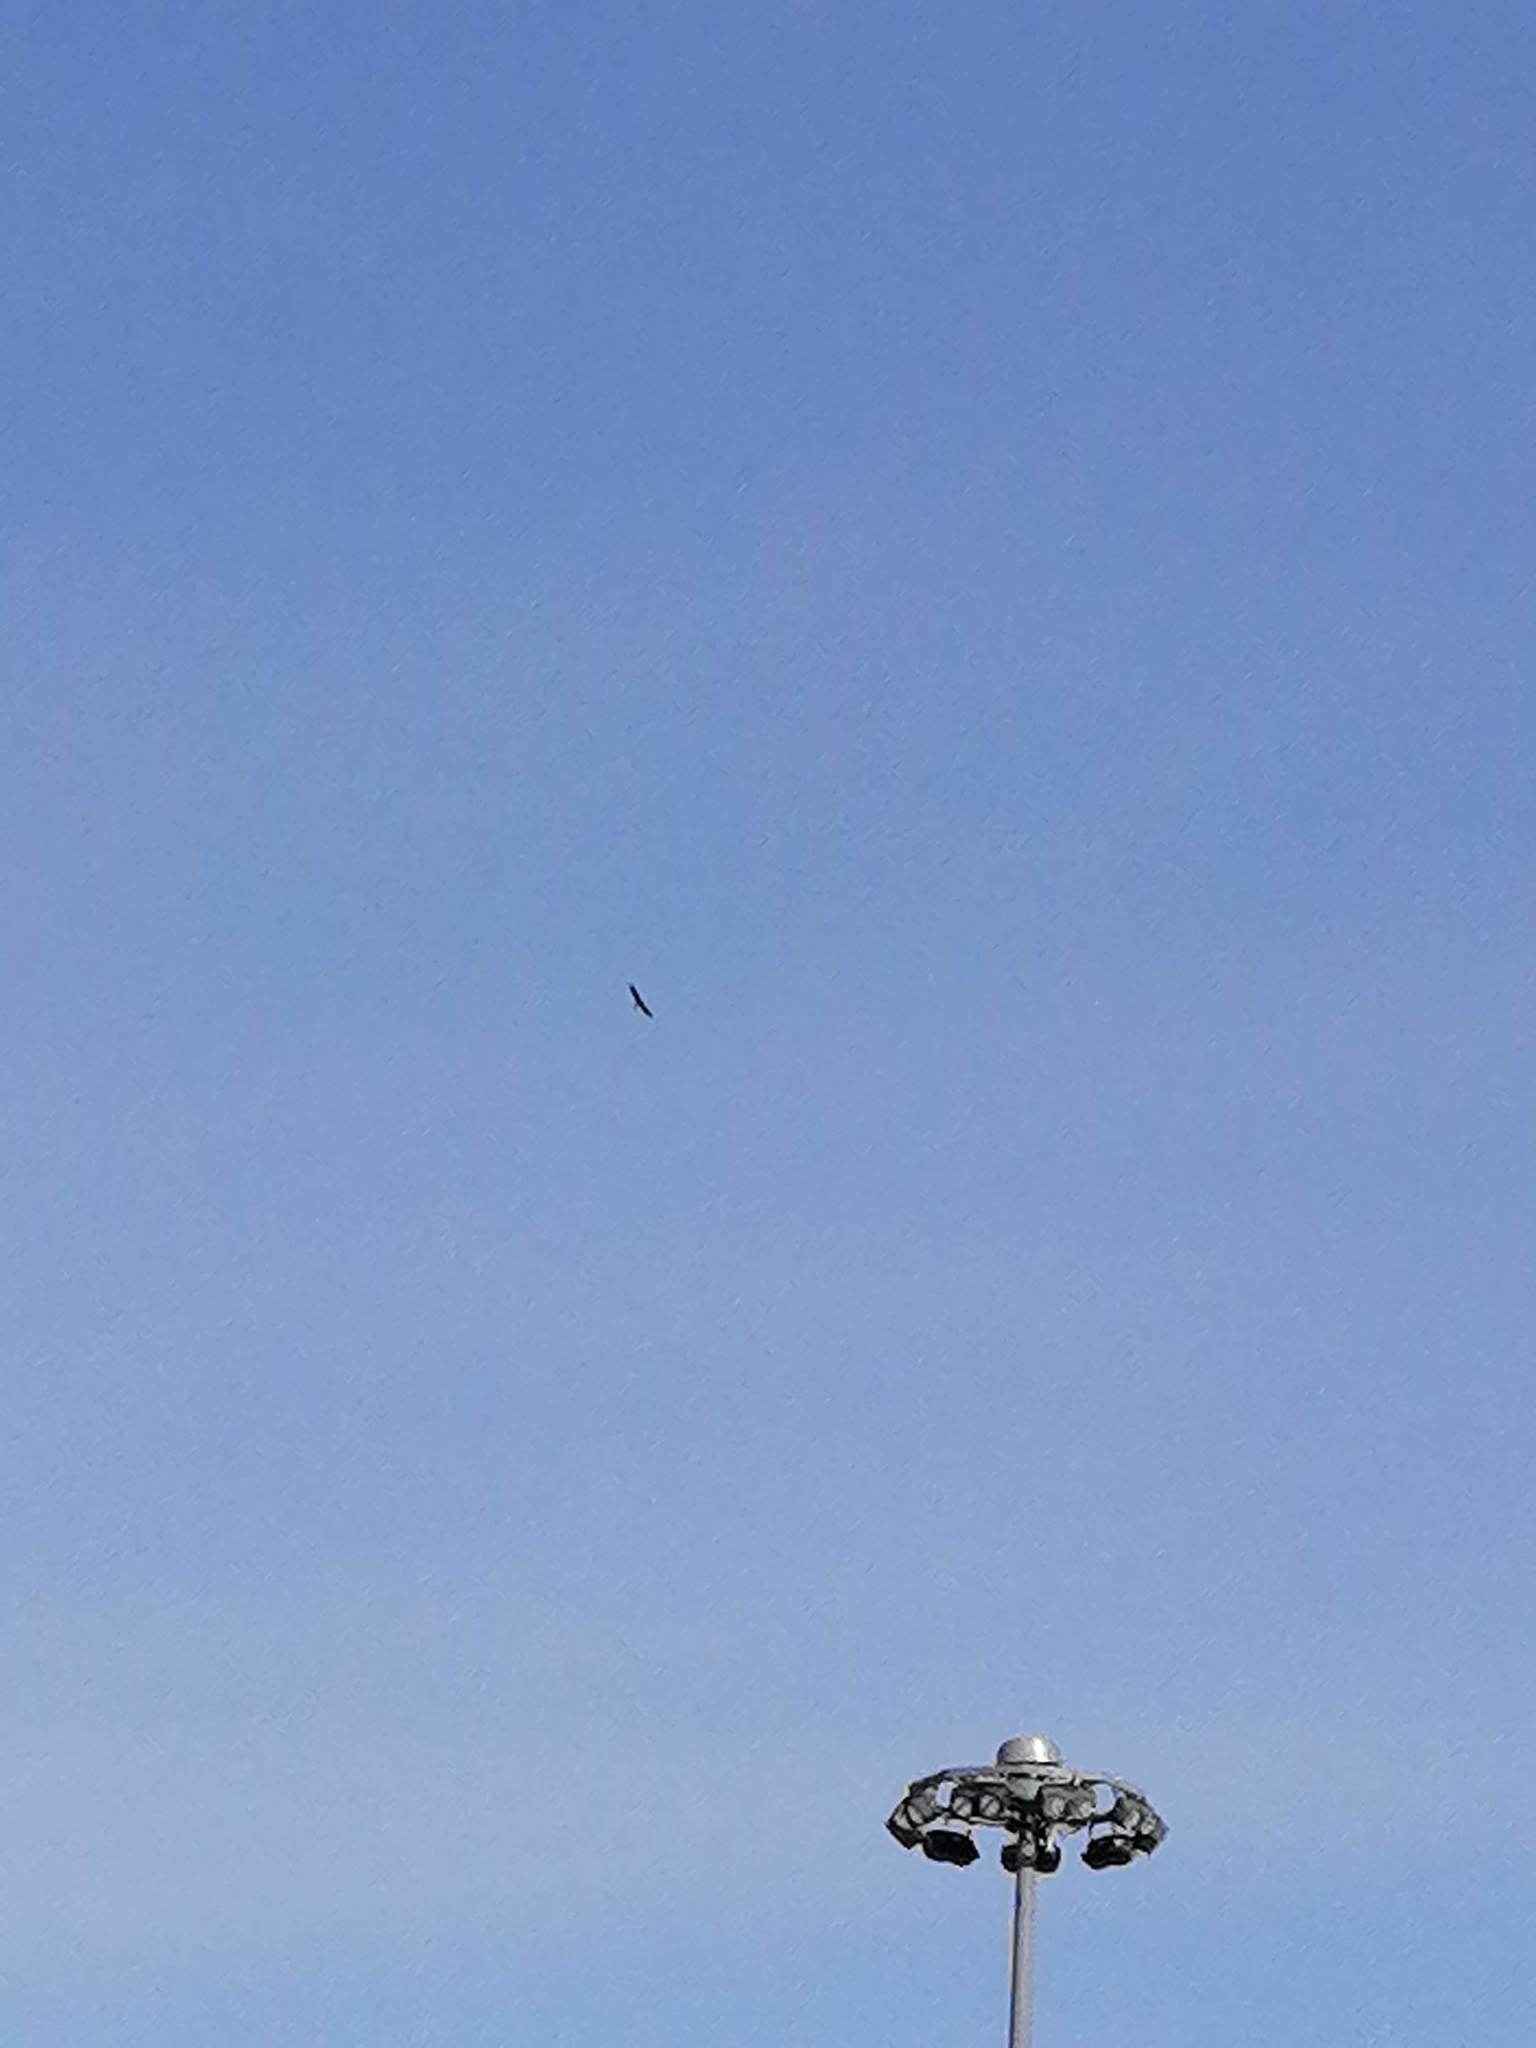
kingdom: Animalia
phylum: Chordata
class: Aves
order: Accipitriformes
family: Accipitridae
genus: Haliaeetus
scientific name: Haliaeetus albicilla
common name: White-tailed eagle
